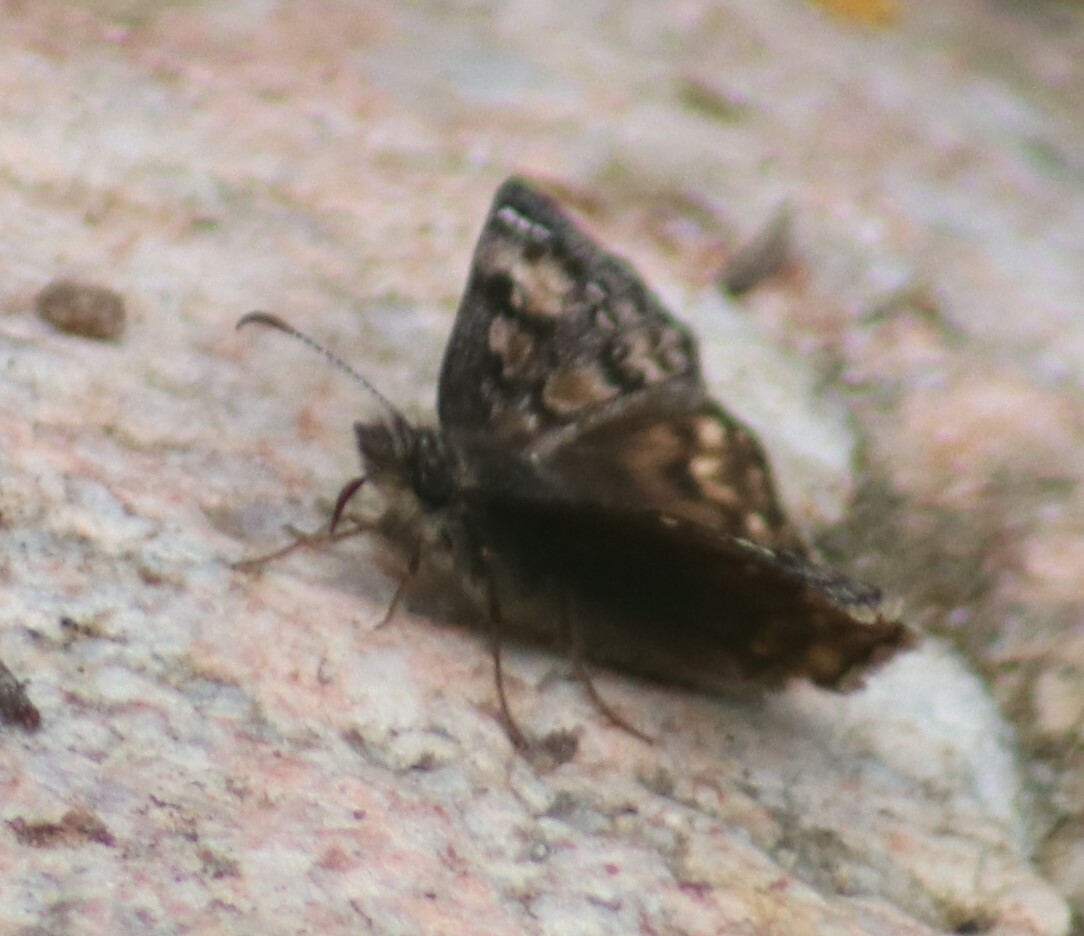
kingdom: Animalia
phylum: Arthropoda
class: Insecta
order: Lepidoptera
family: Hesperiidae
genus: Erynnis
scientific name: Erynnis juvenalis
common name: Juvenal's duskywing
